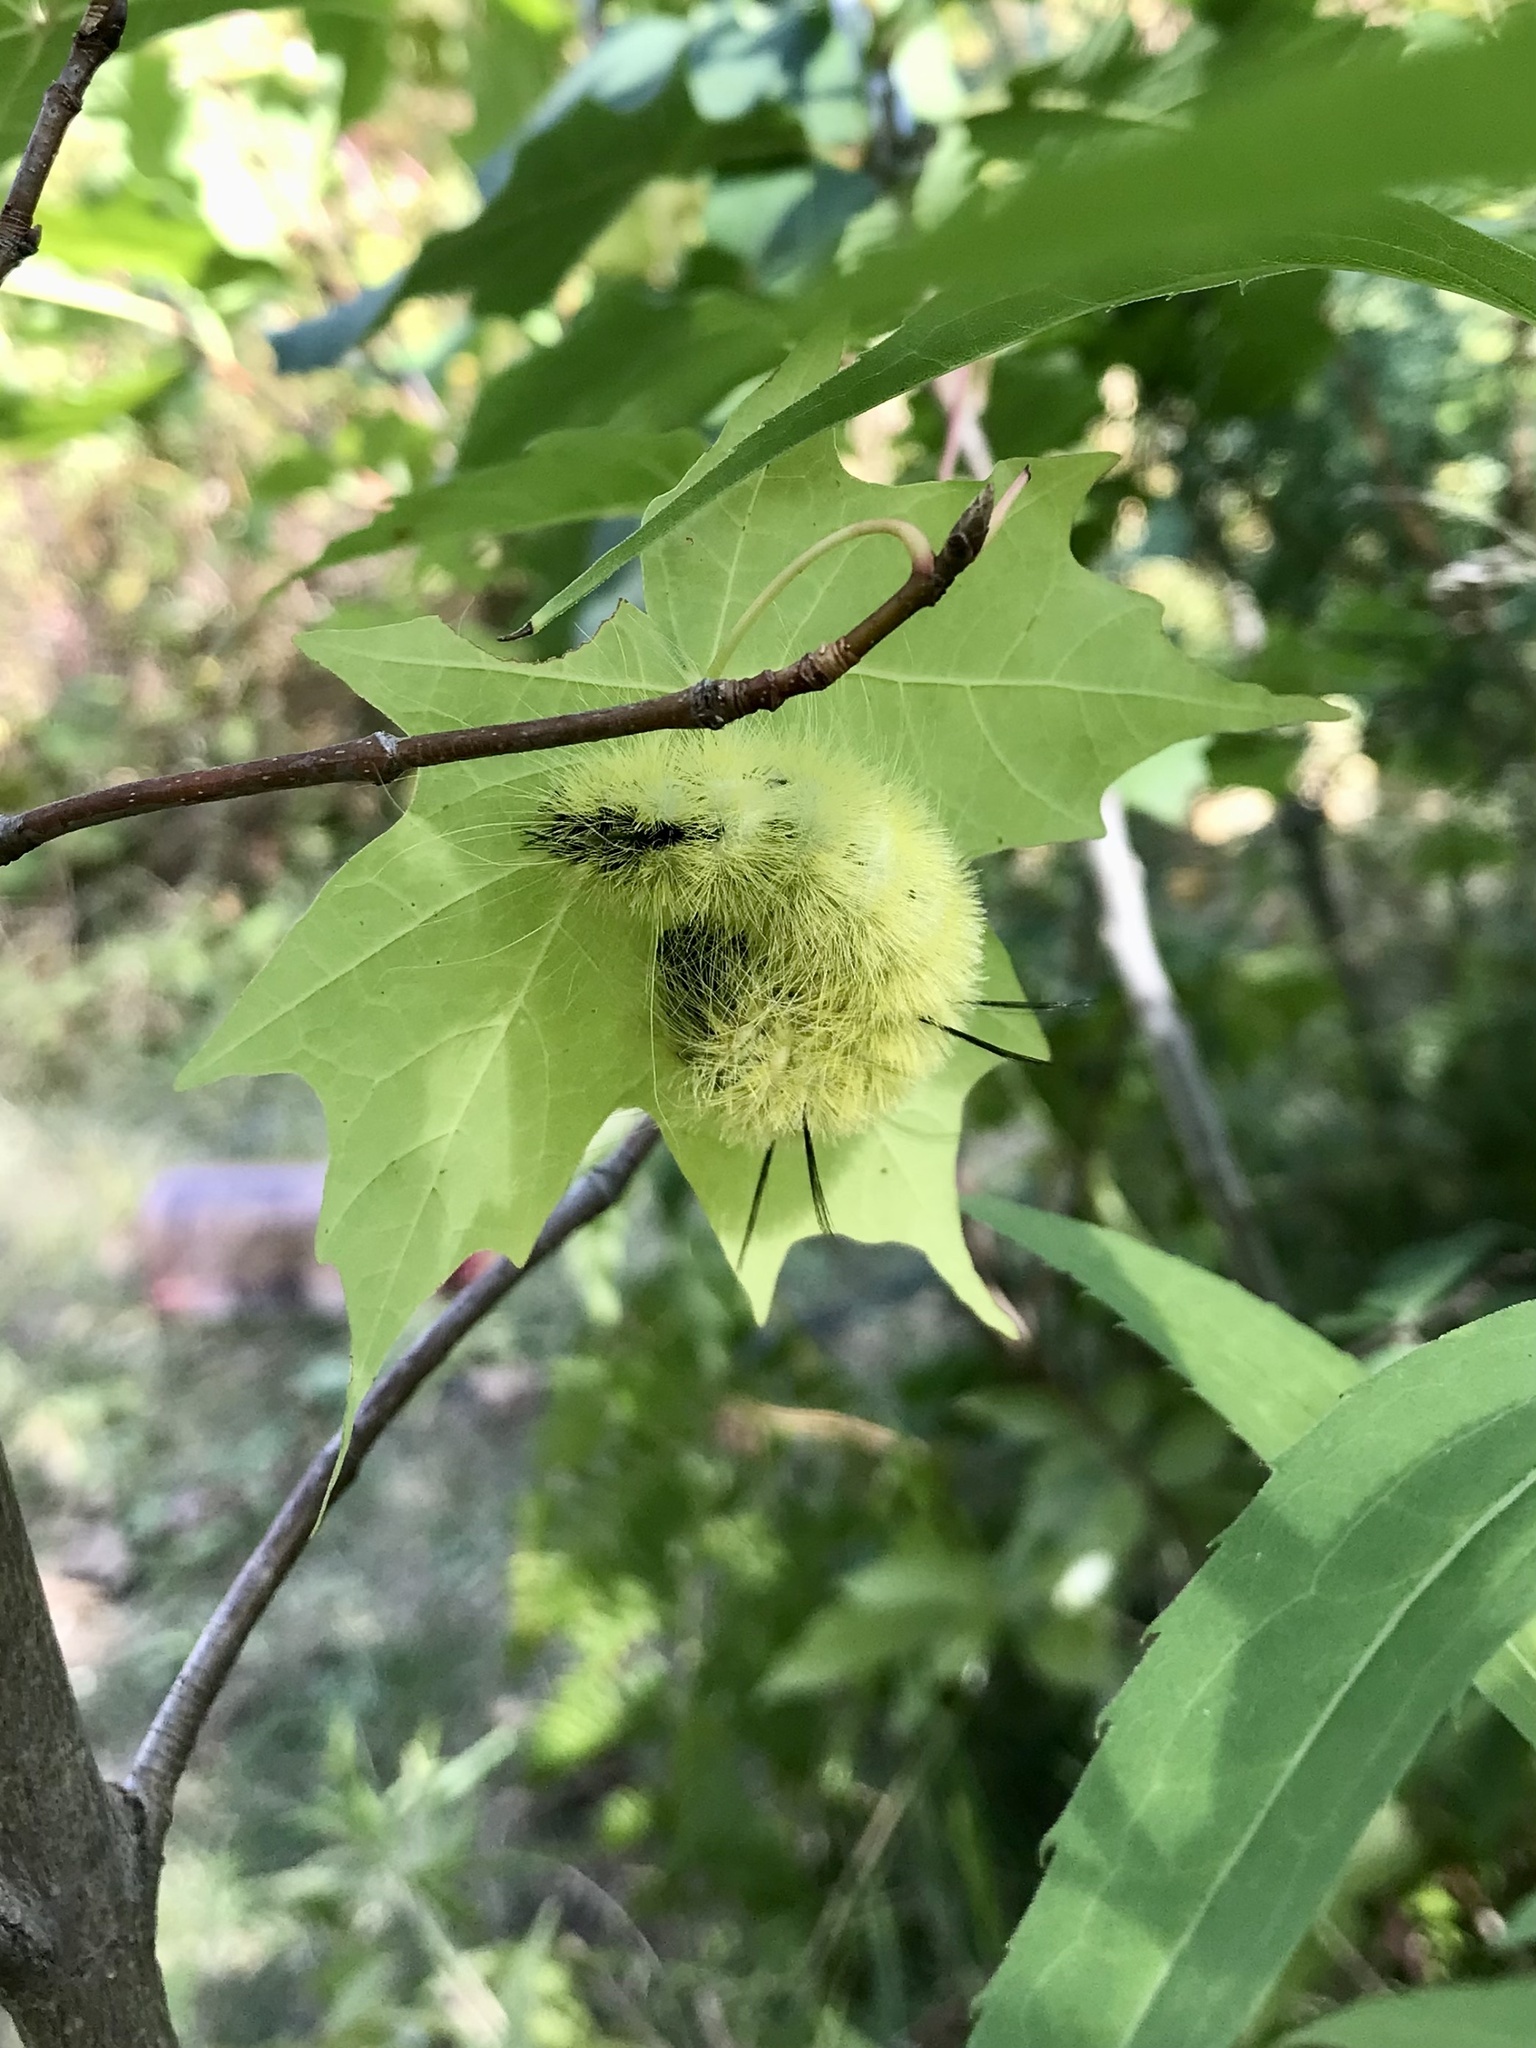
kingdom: Animalia
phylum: Arthropoda
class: Insecta
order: Lepidoptera
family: Noctuidae
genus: Acronicta
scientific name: Acronicta americana
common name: American dagger
